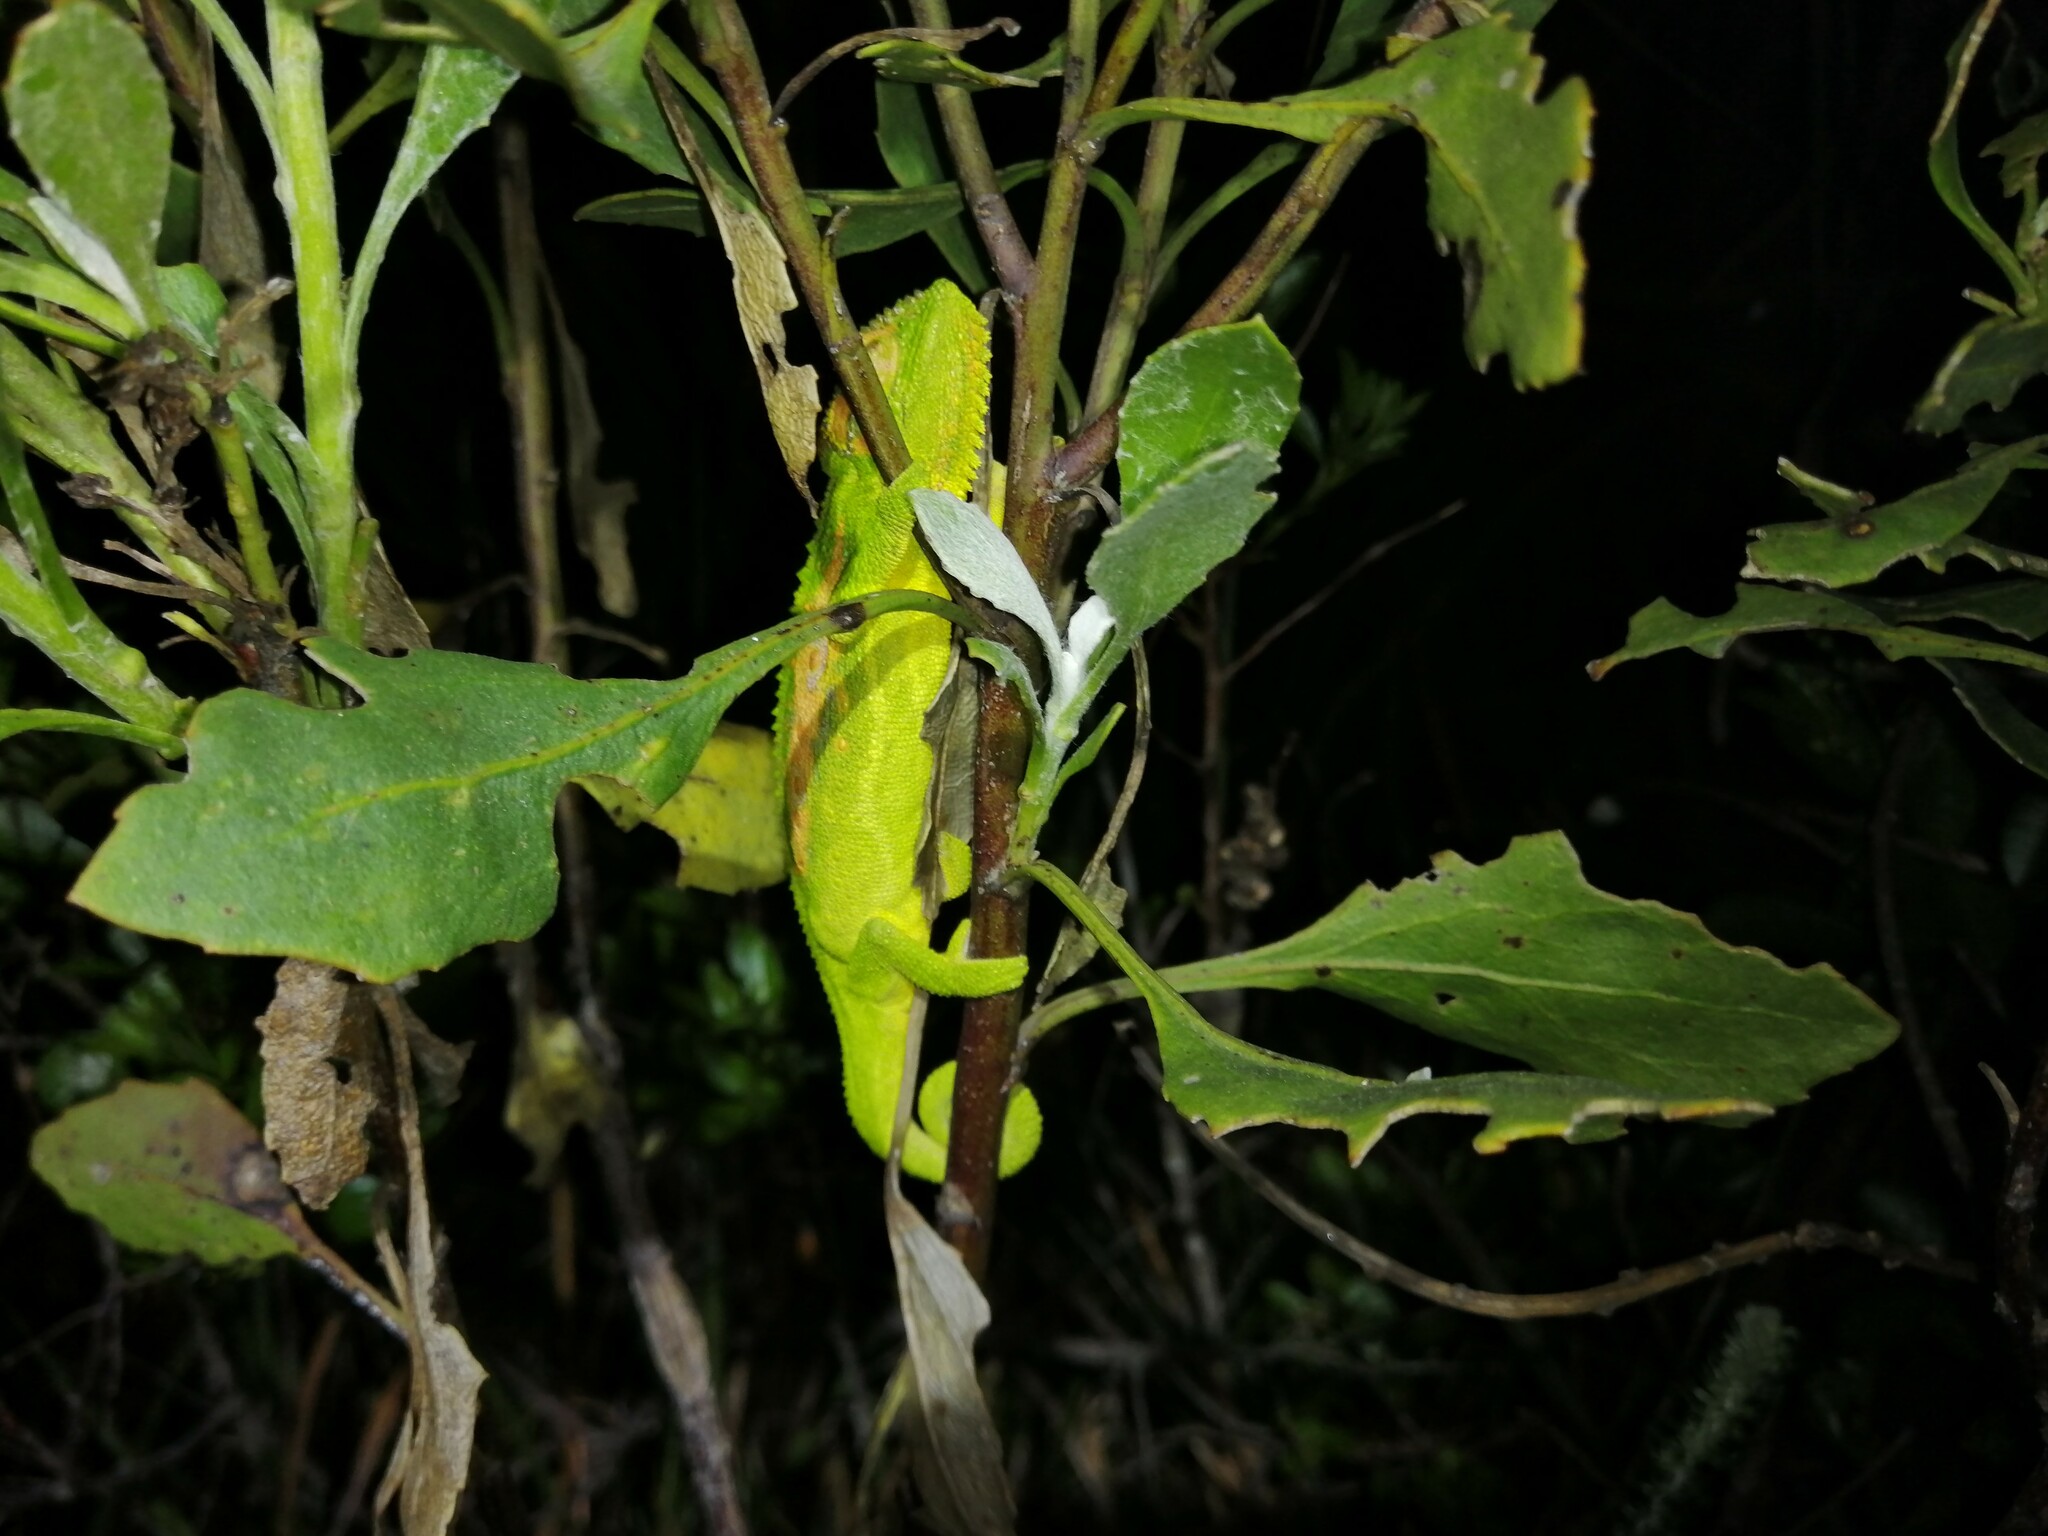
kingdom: Animalia
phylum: Chordata
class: Squamata
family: Chamaeleonidae
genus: Bradypodion
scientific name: Bradypodion pumilum
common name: Cape dwarf chameleon
